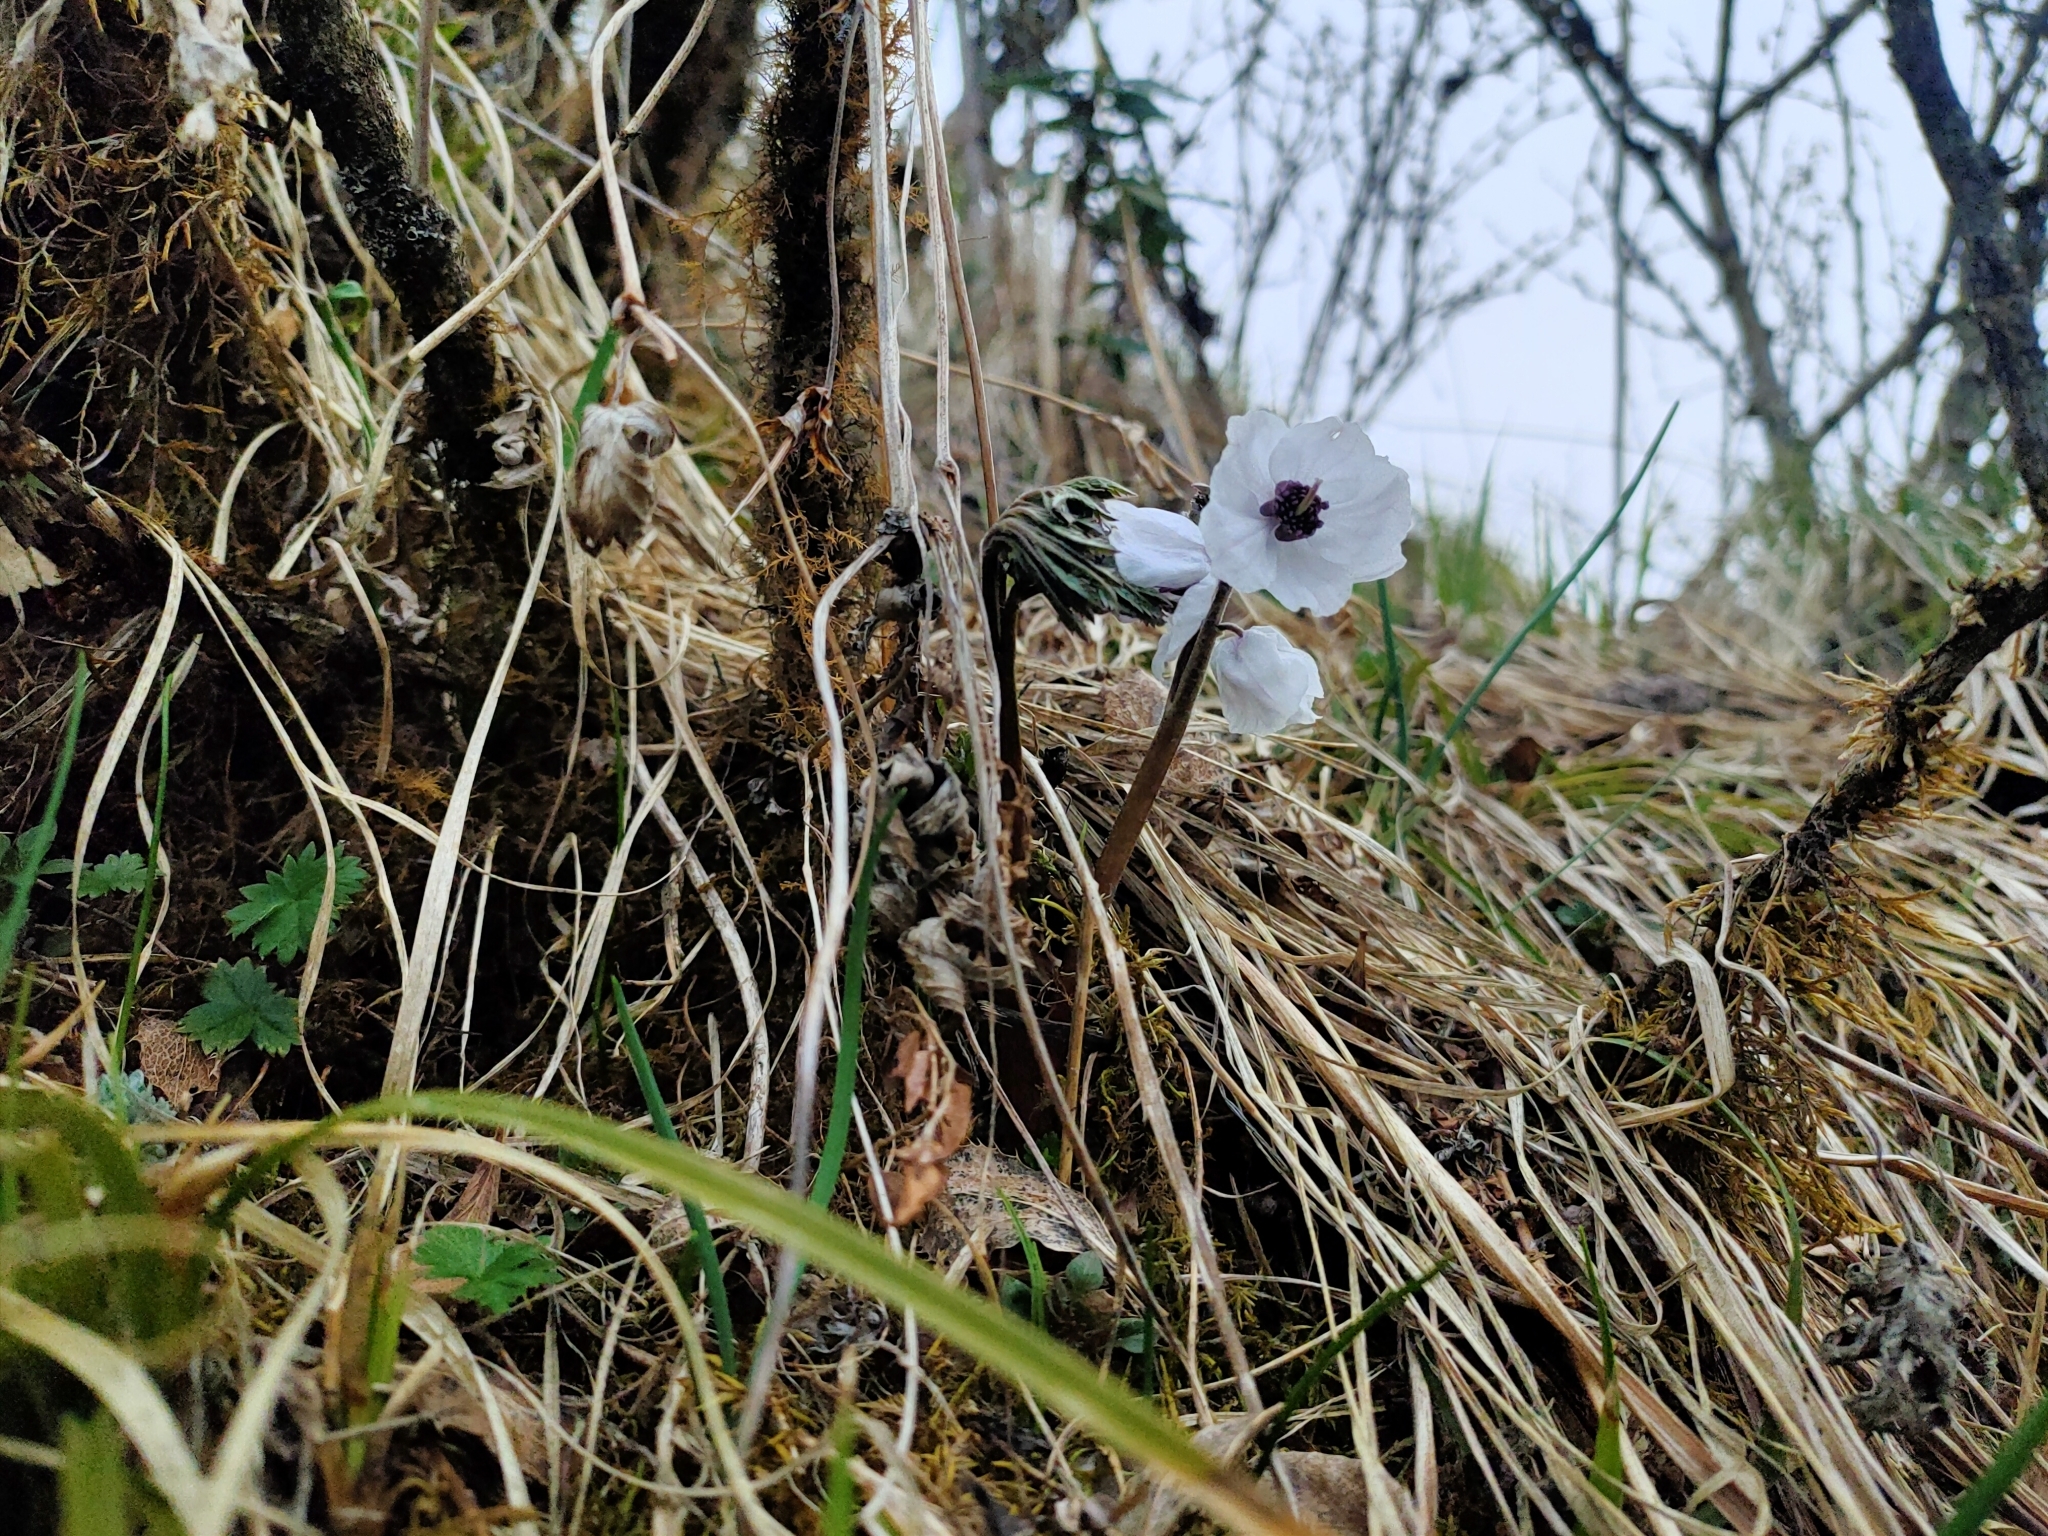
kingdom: Plantae
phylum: Tracheophyta
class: Magnoliopsida
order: Ranunculales
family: Ranunculaceae
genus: Actaea
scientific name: Actaea vaginata
